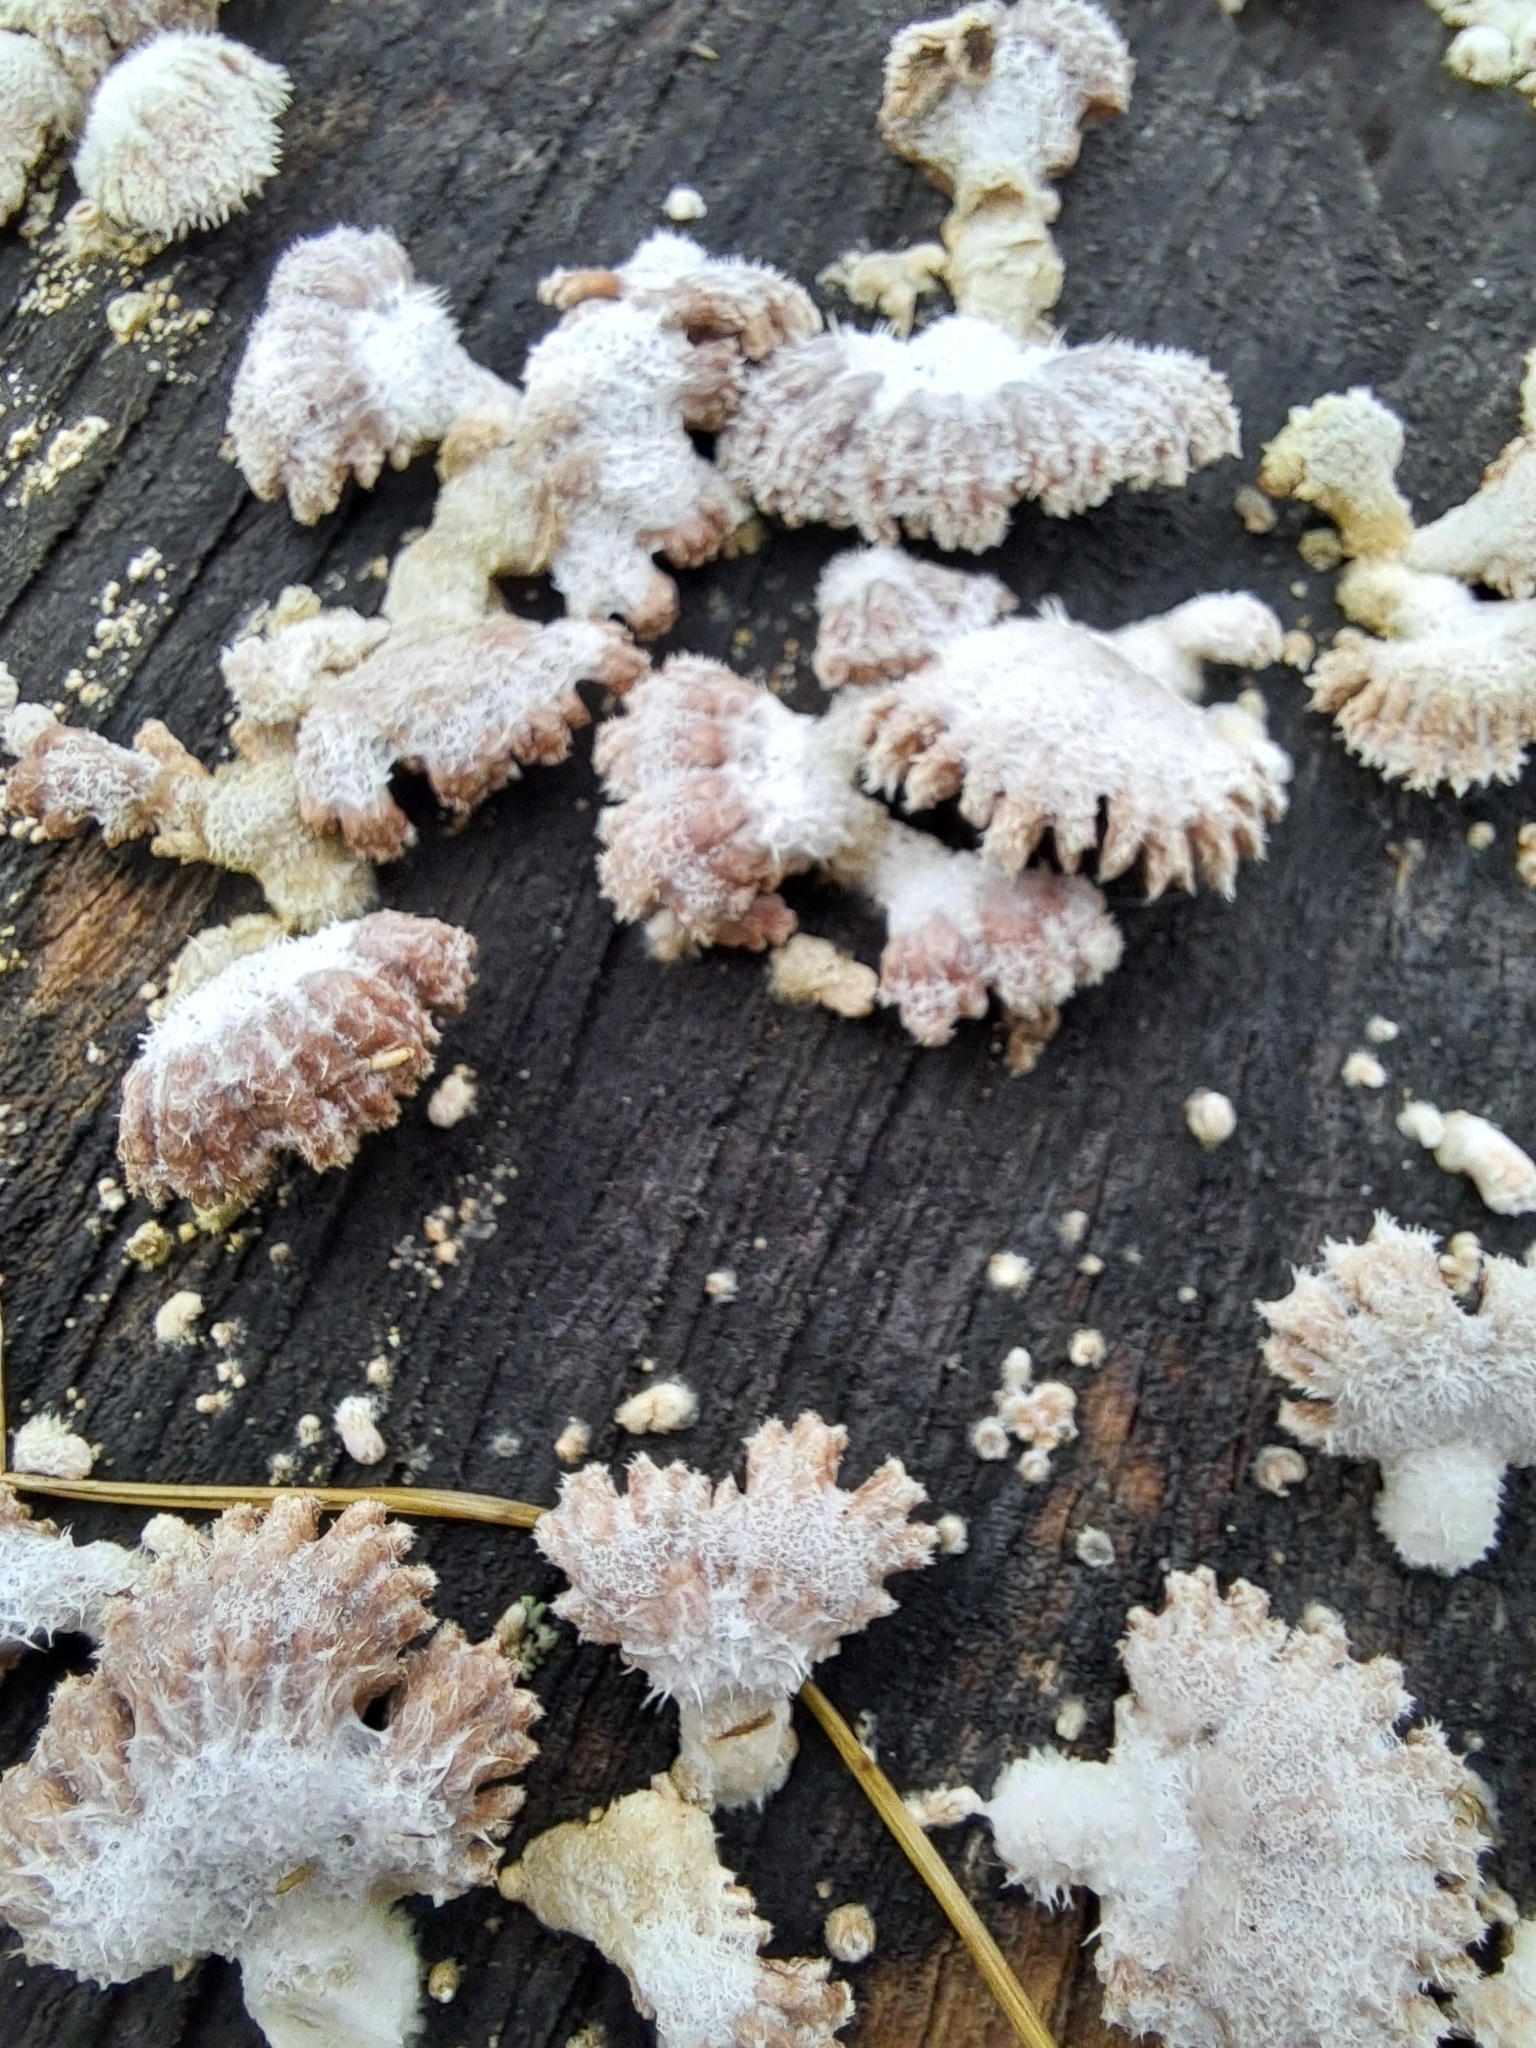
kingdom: Fungi
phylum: Basidiomycota
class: Agaricomycetes
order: Agaricales
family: Schizophyllaceae
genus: Schizophyllum
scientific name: Schizophyllum commune
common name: Common porecrust
